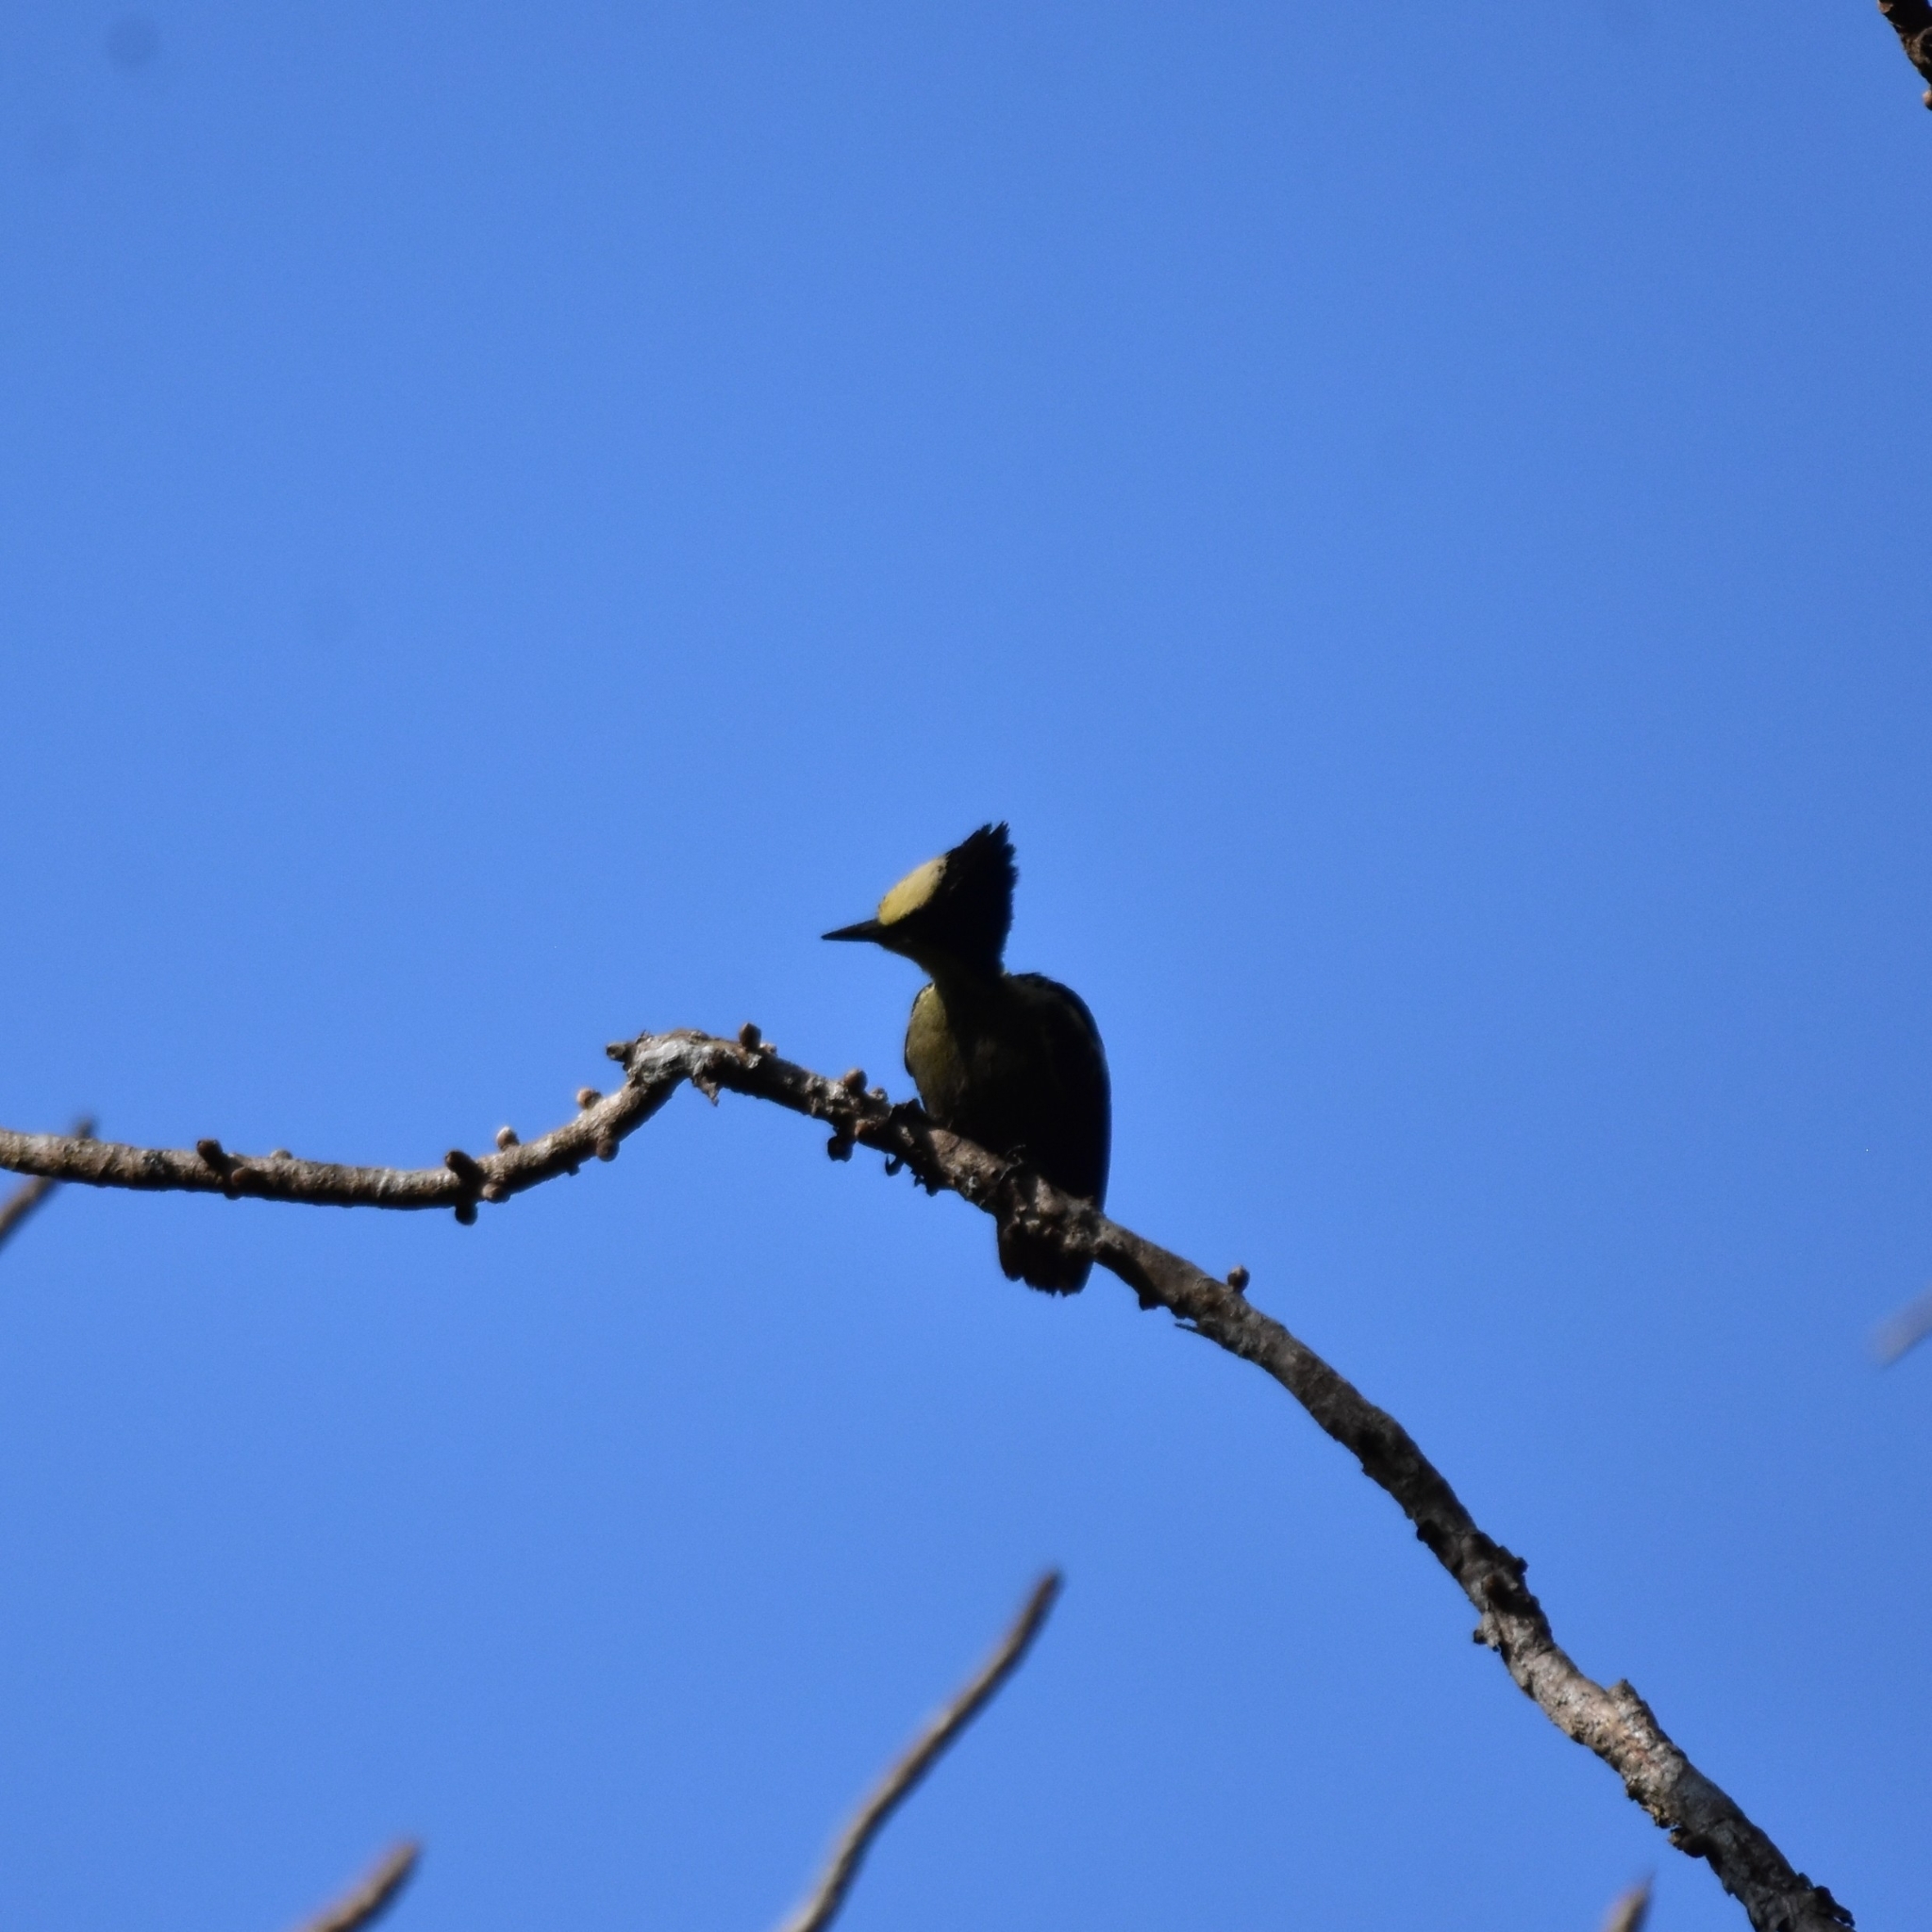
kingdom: Animalia
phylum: Chordata
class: Aves
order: Piciformes
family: Picidae
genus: Hemicircus
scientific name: Hemicircus canente
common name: Heart-spotted woodpecker
